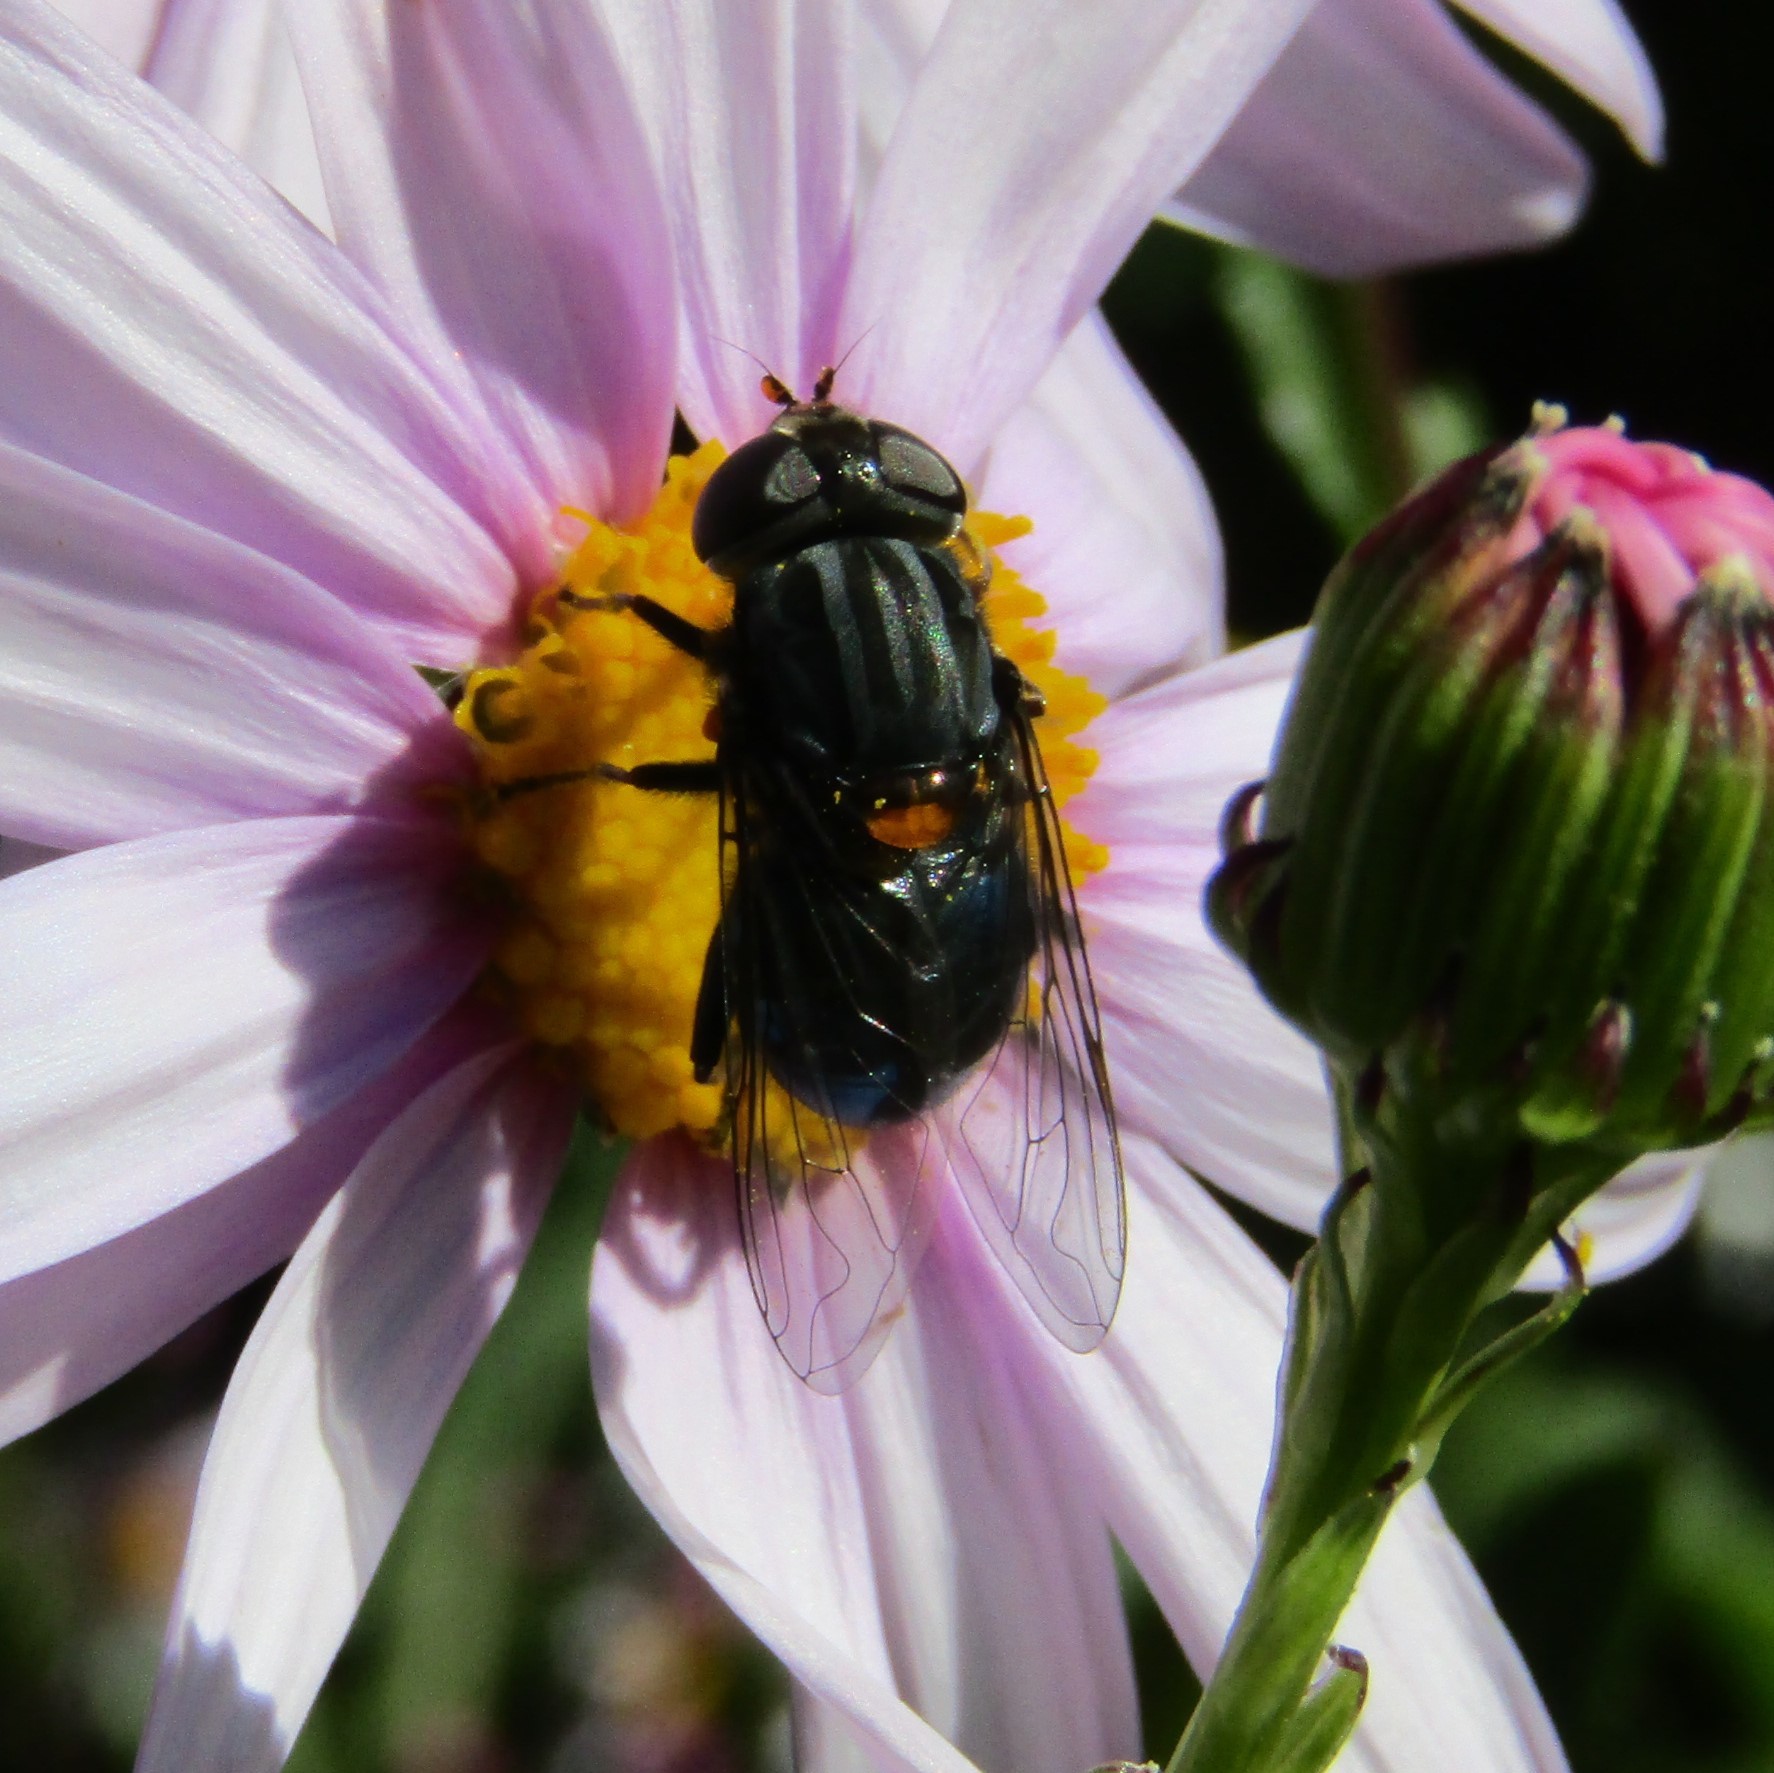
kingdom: Animalia
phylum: Arthropoda
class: Insecta
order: Diptera
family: Syrphidae
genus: Helophilus
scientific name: Helophilus hochstetteri
